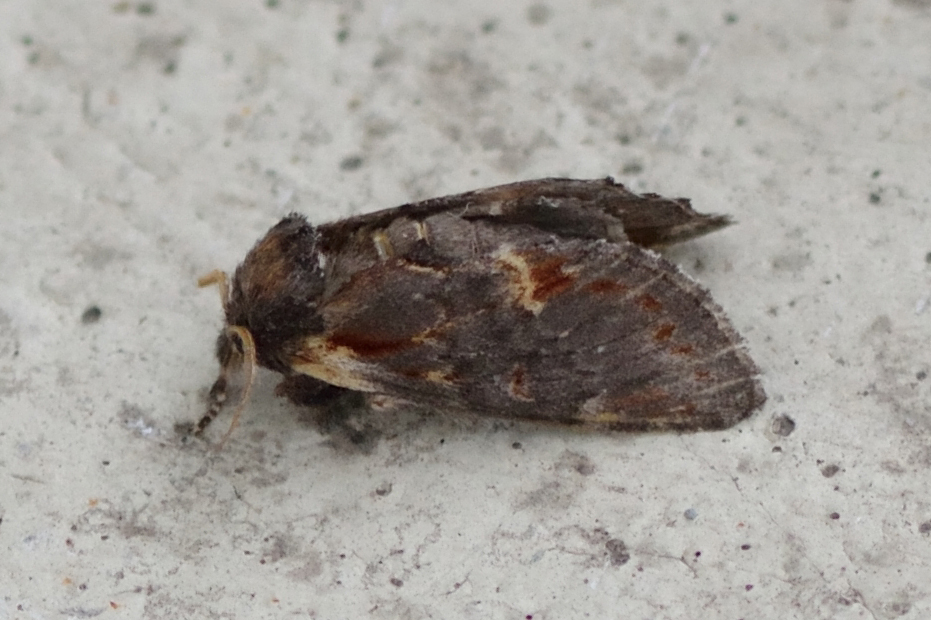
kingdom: Animalia
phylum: Arthropoda
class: Insecta
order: Lepidoptera
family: Notodontidae
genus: Notodonta
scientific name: Notodonta dromedarius
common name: Iron prominent
